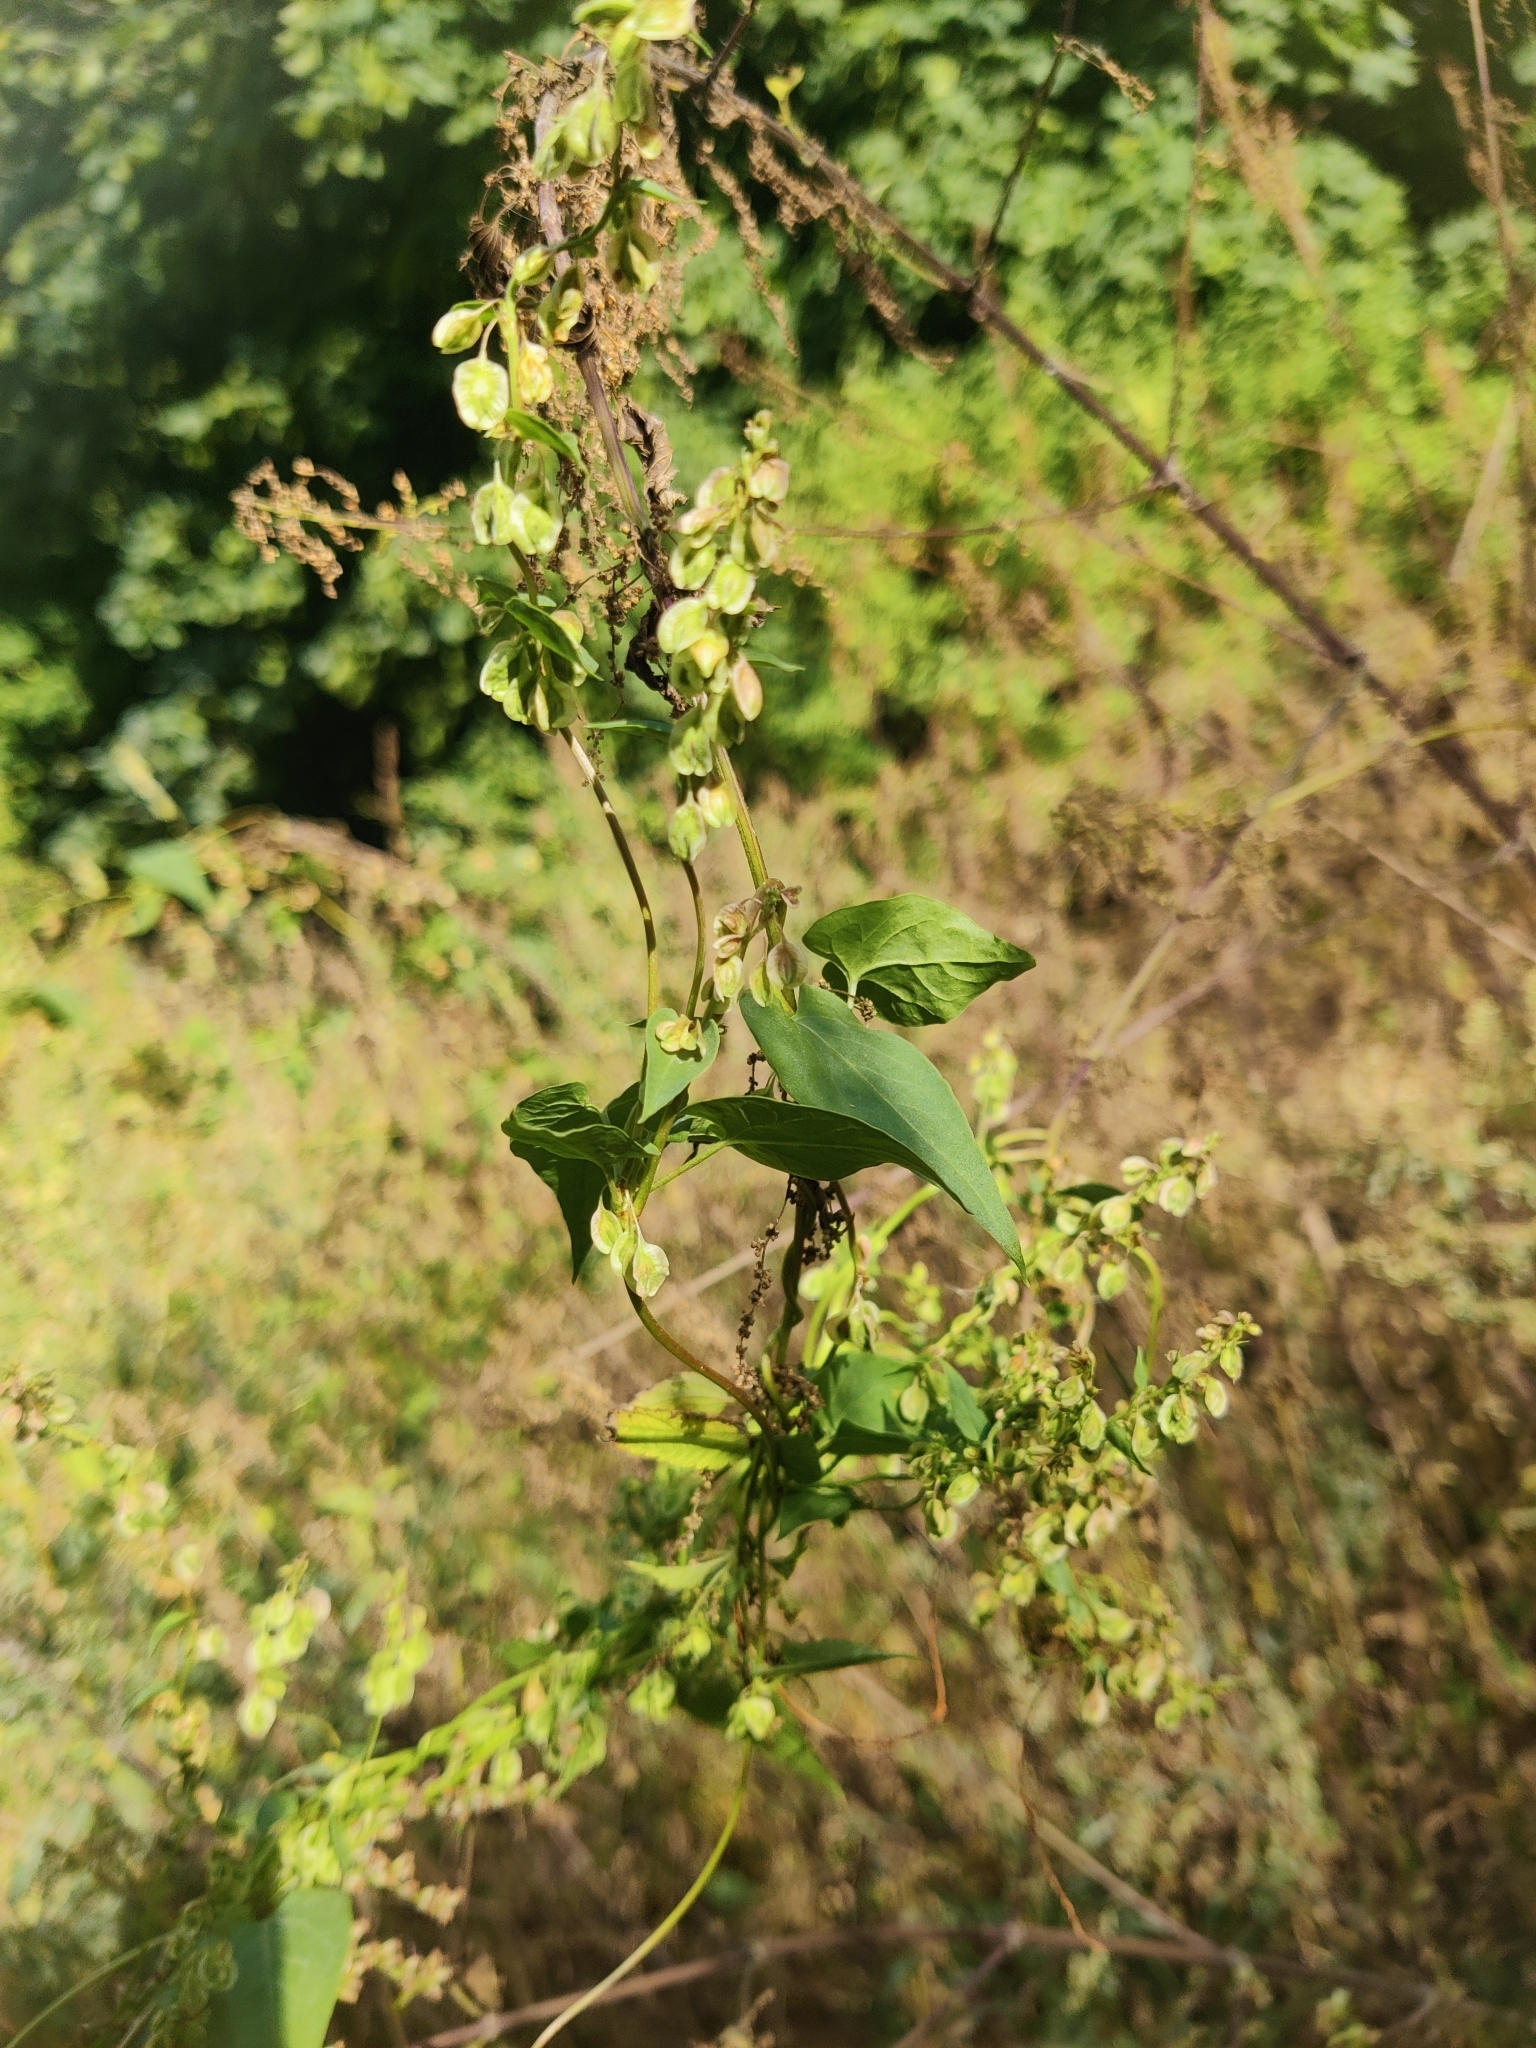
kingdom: Plantae
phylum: Tracheophyta
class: Magnoliopsida
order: Caryophyllales
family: Polygonaceae
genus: Fallopia
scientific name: Fallopia dumetorum
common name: Copse-bindweed
